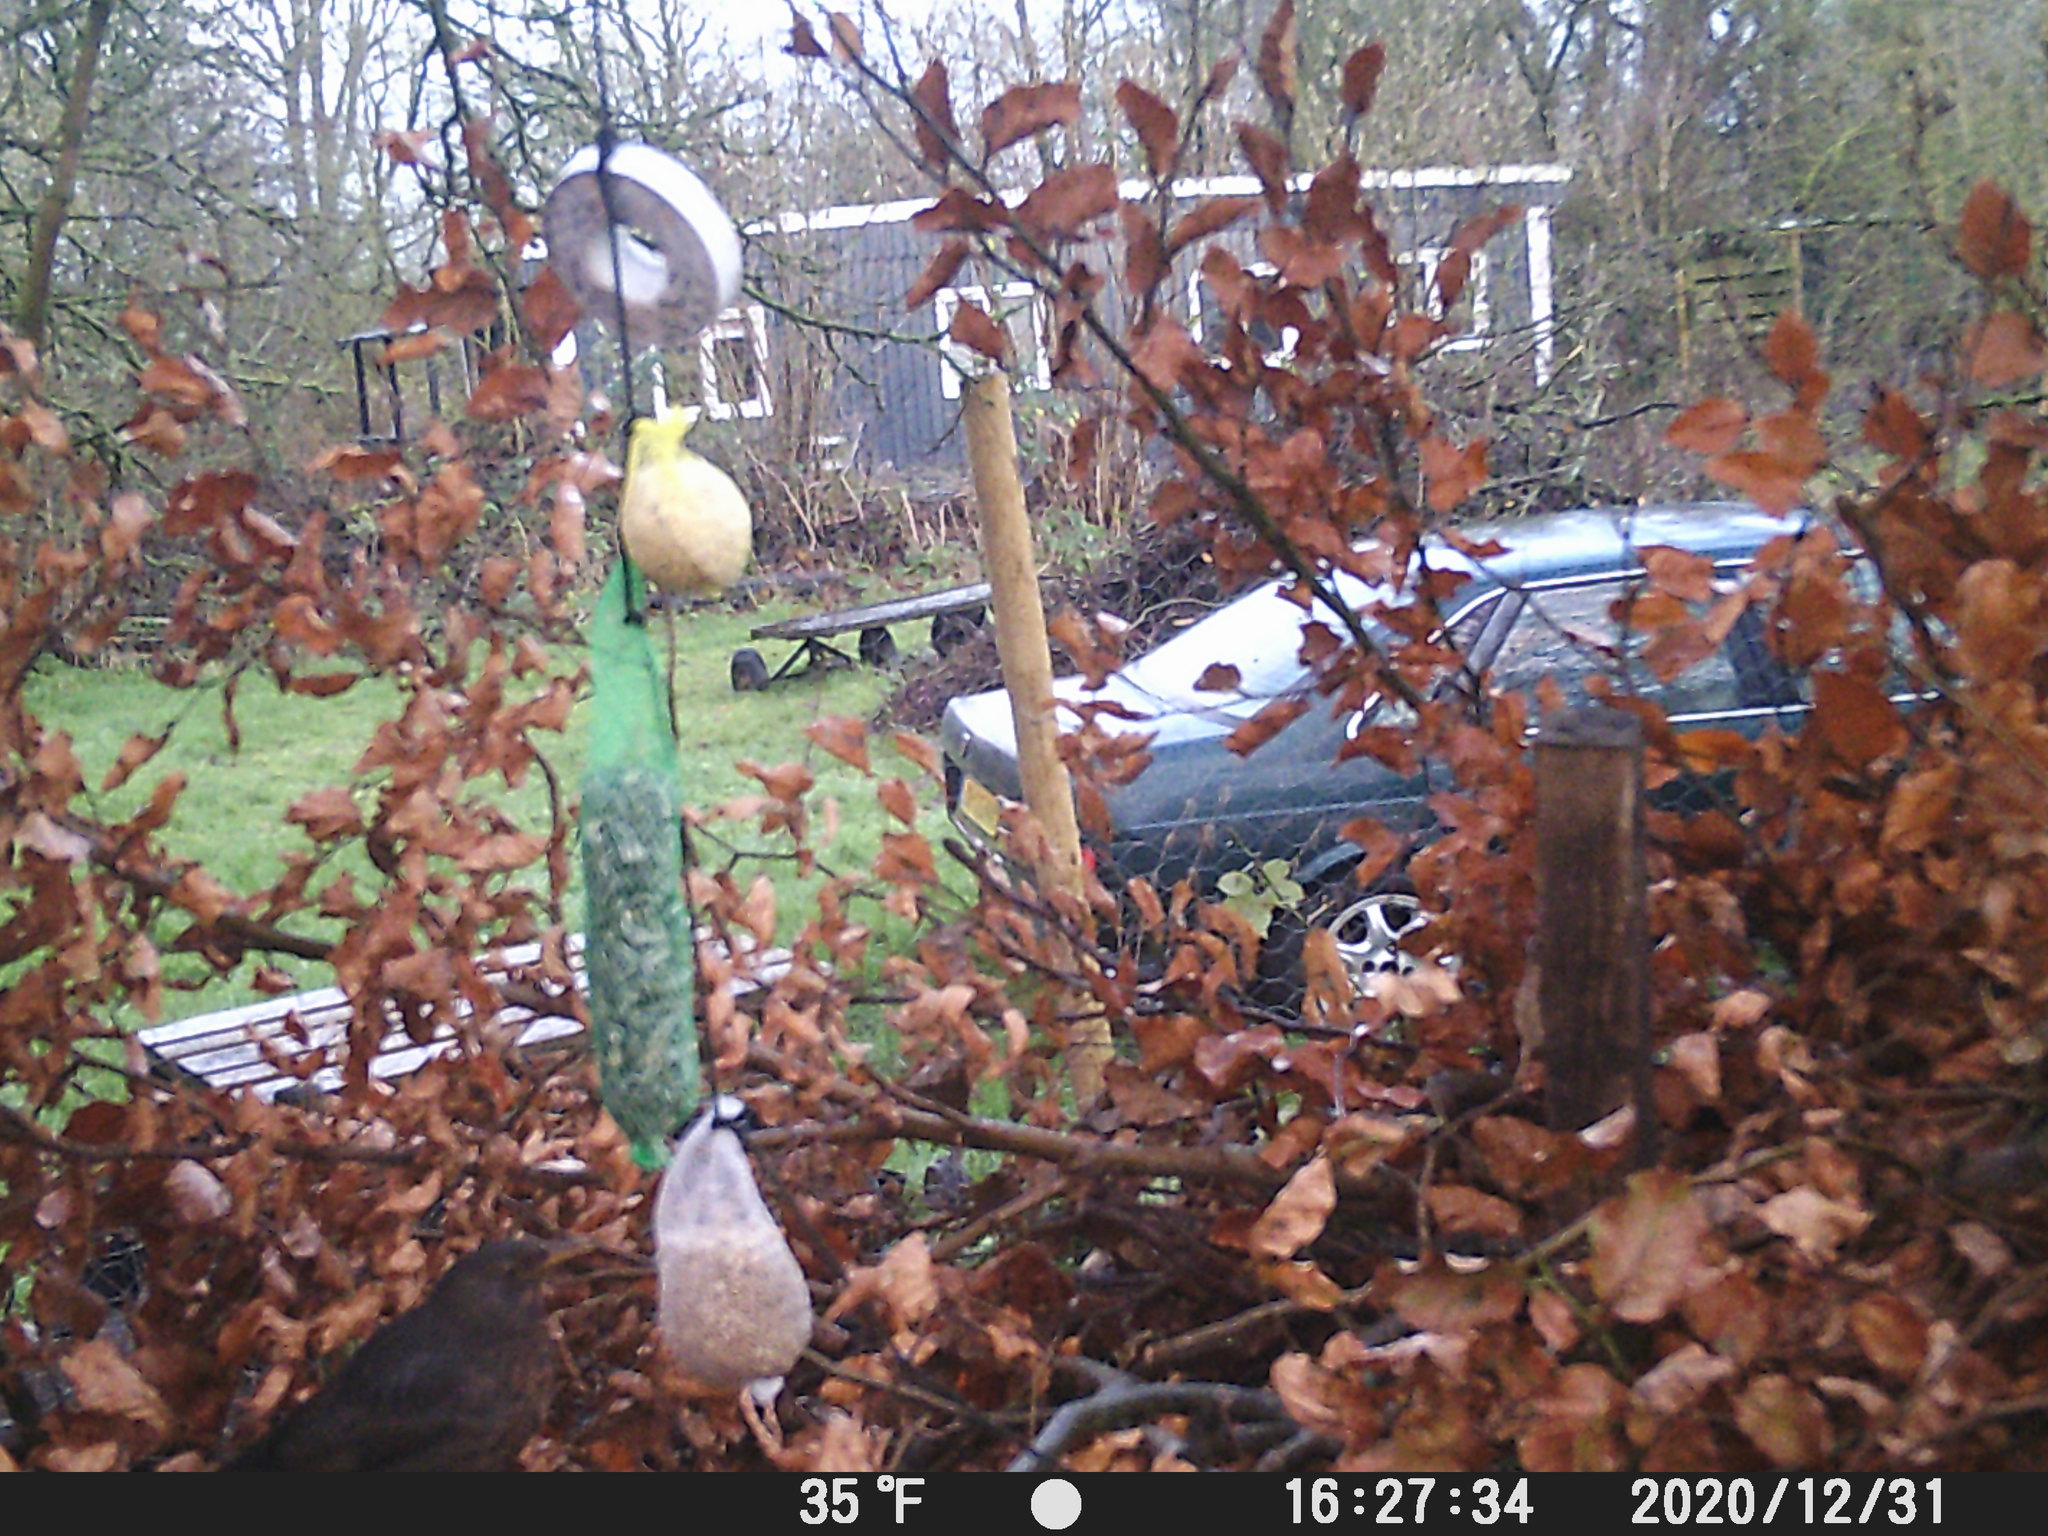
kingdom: Animalia
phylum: Chordata
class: Aves
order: Passeriformes
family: Turdidae
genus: Turdus
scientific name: Turdus merula
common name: Common blackbird
